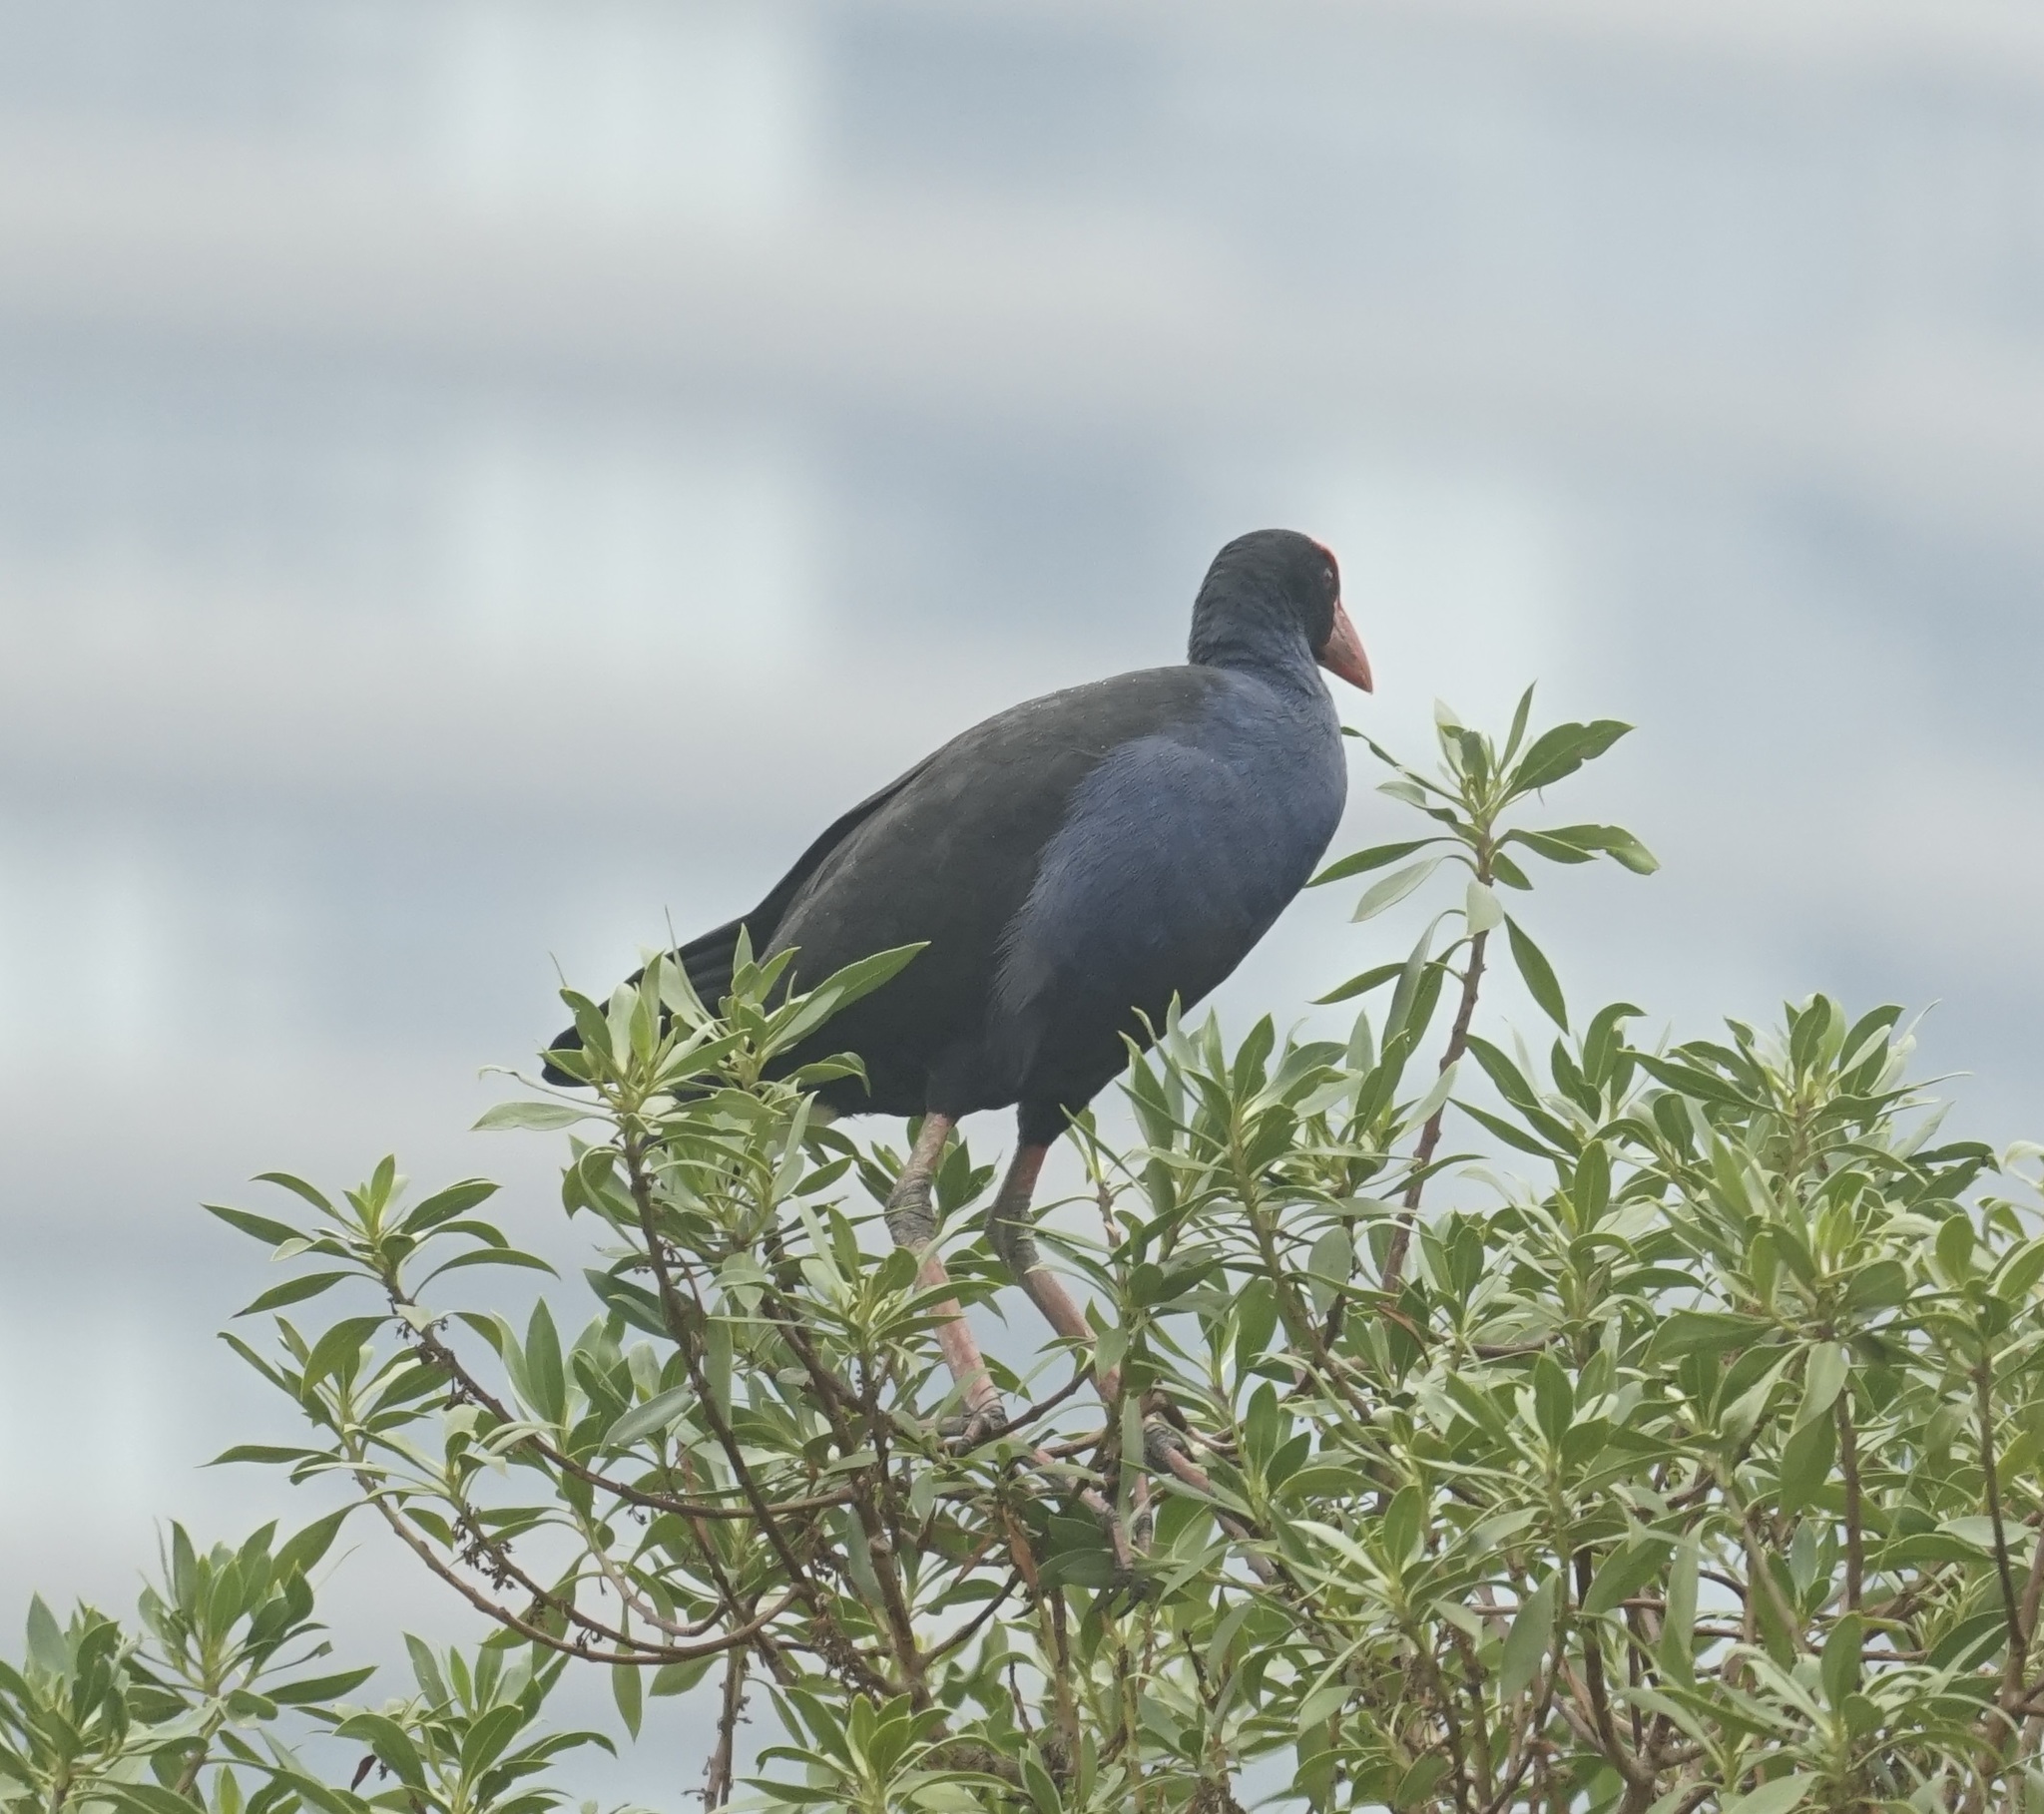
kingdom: Animalia
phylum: Chordata
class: Aves
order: Gruiformes
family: Rallidae
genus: Porphyrio
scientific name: Porphyrio melanotus
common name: Australasian swamphen
